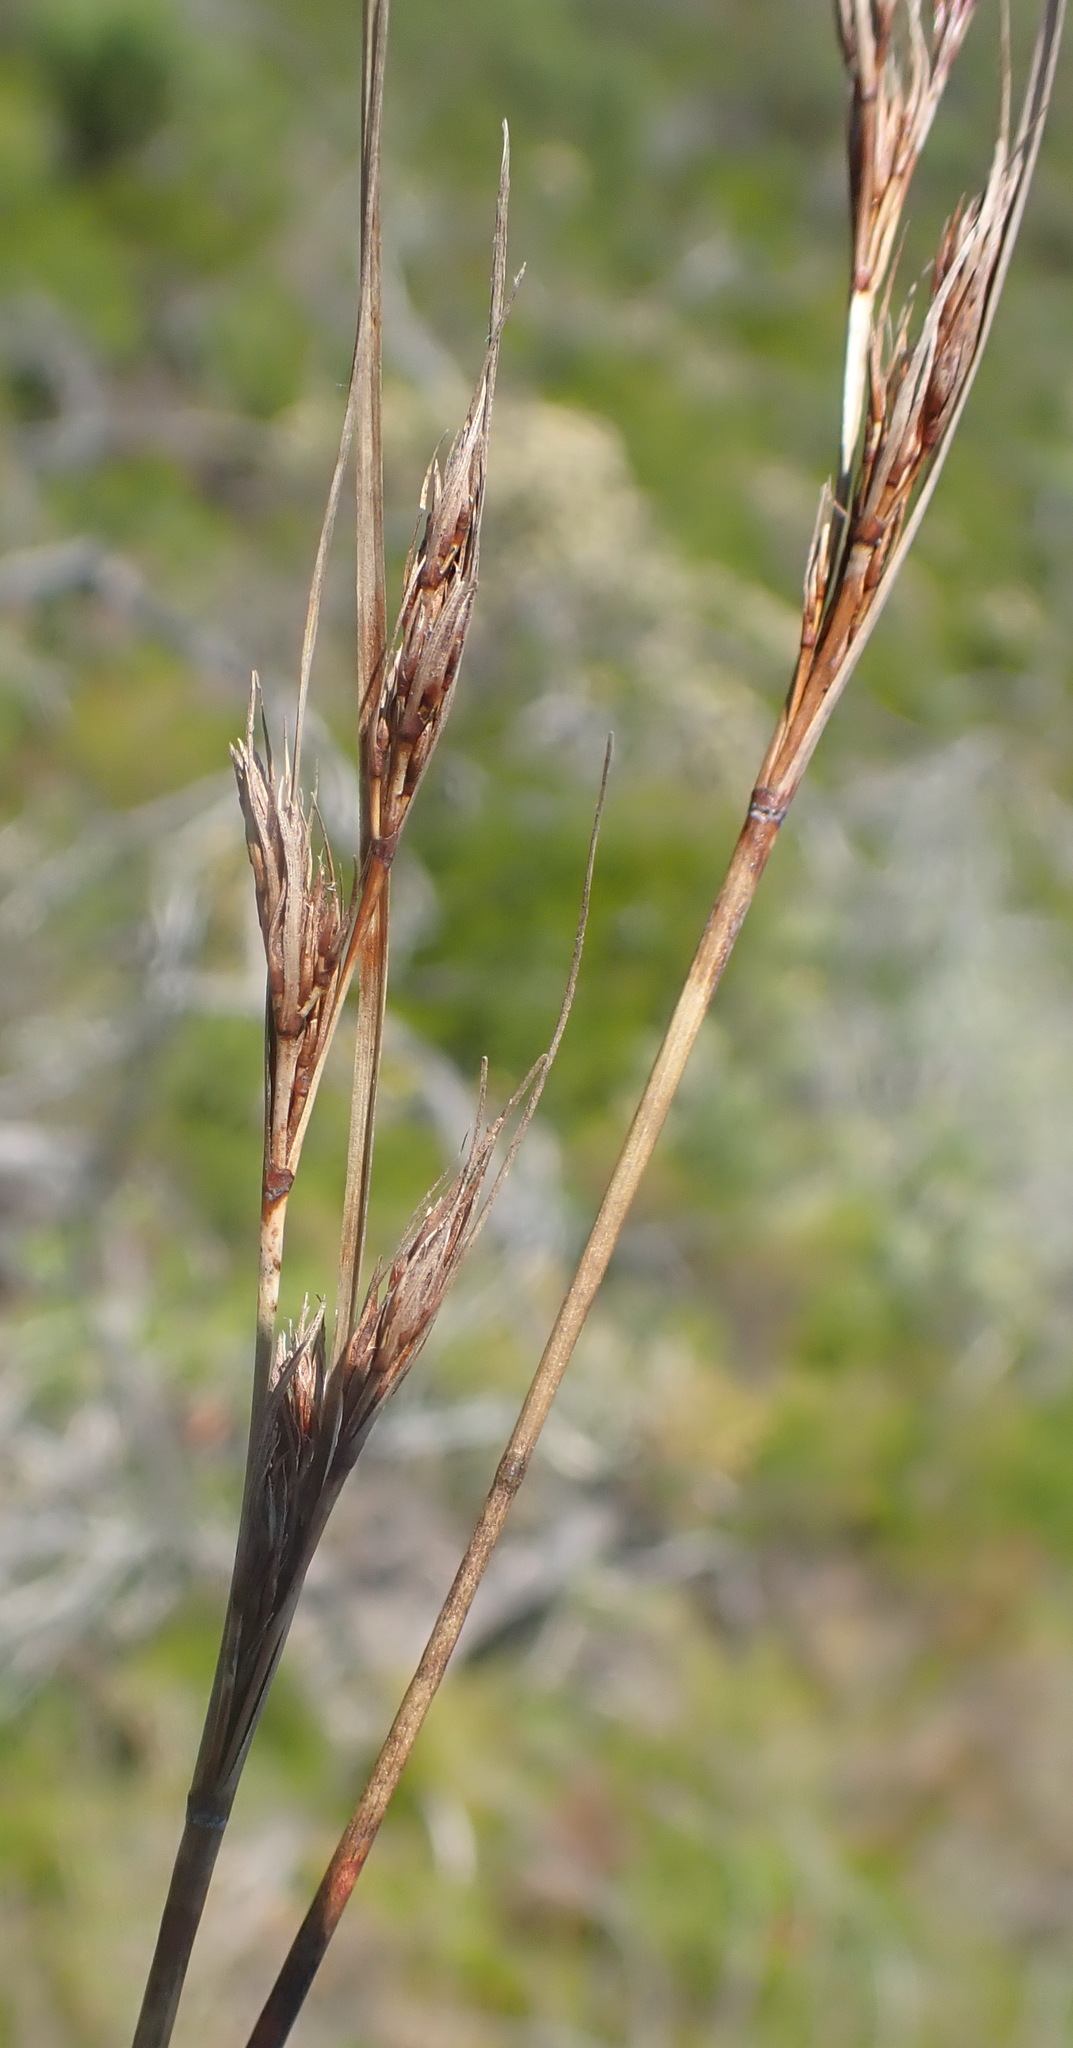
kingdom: Plantae
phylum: Tracheophyta
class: Liliopsida
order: Poales
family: Cyperaceae
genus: Schoenus
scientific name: Schoenus graciliculmis
